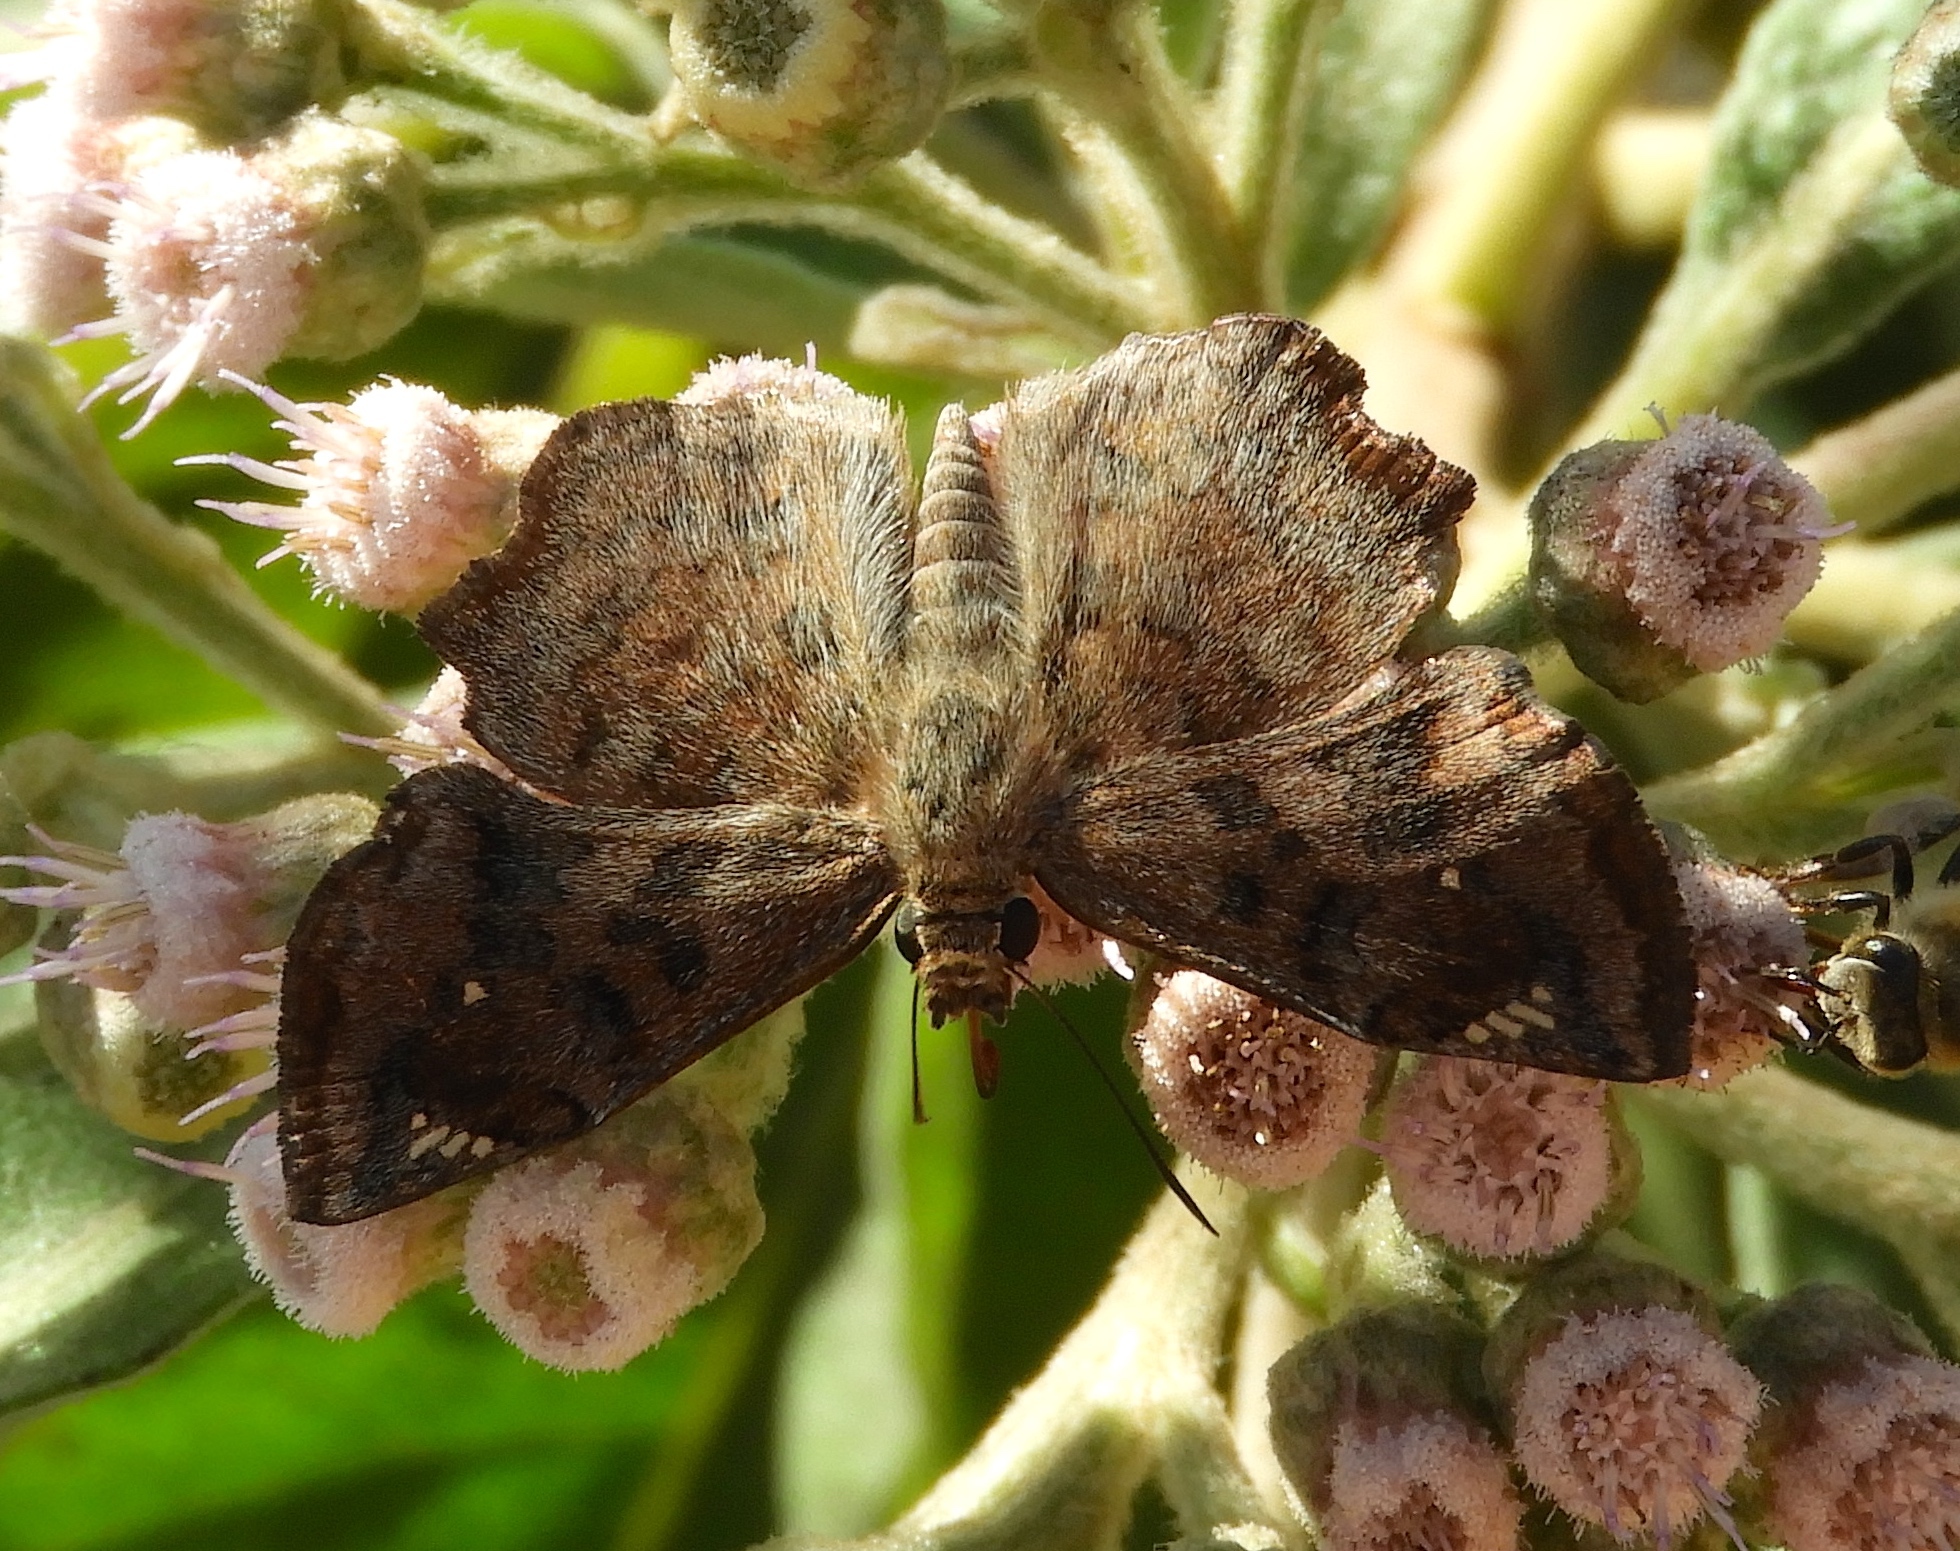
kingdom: Animalia
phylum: Arthropoda
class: Insecta
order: Lepidoptera
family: Hesperiidae
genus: Antigonus
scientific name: Antigonus erosus
